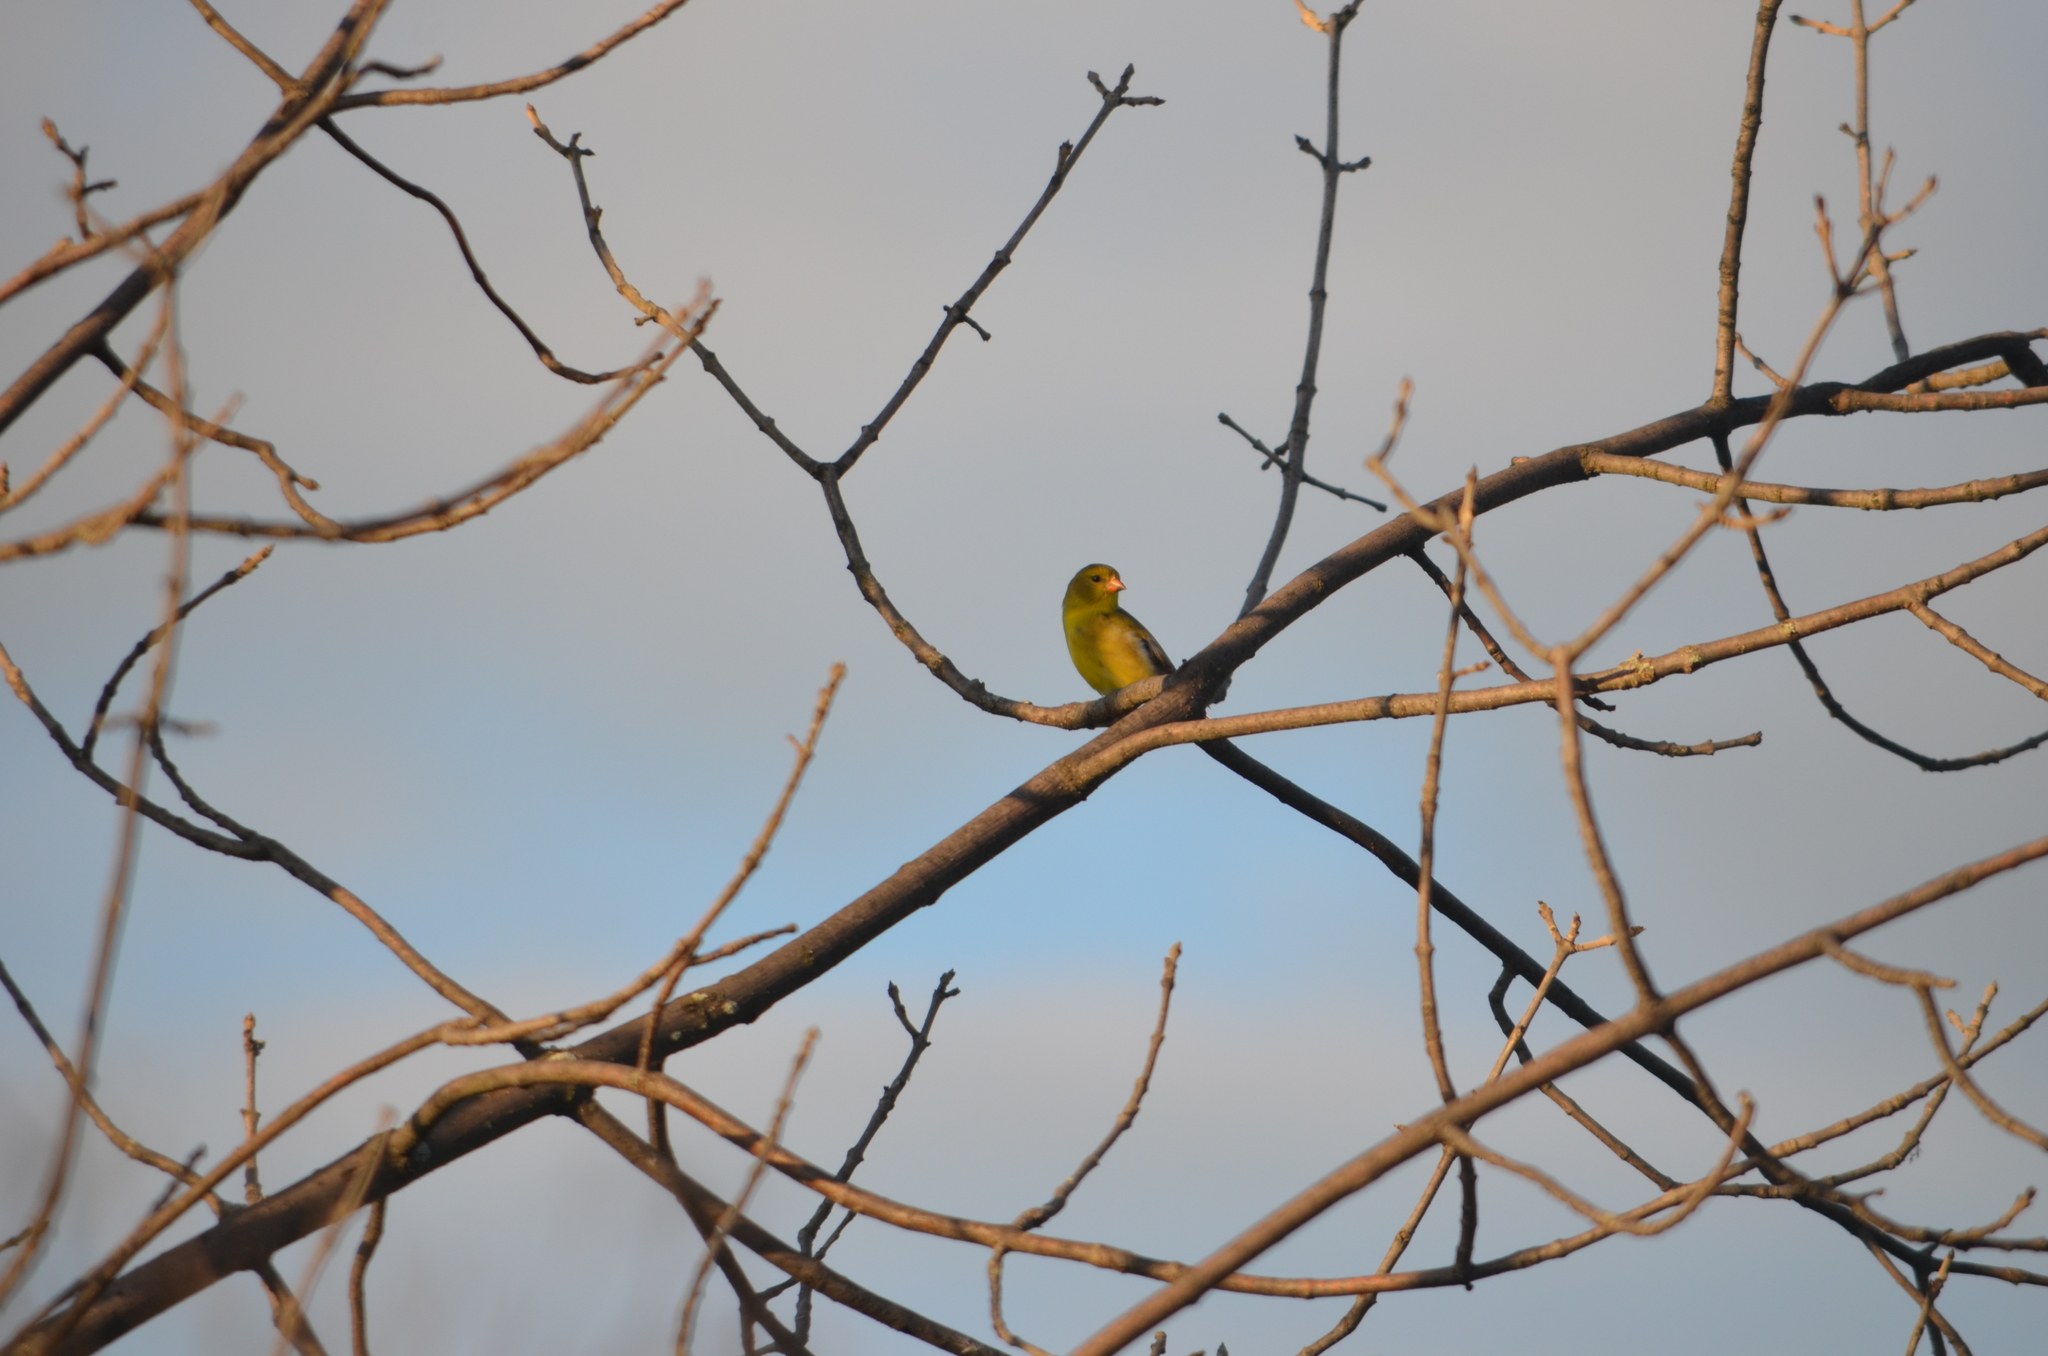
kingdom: Animalia
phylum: Chordata
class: Aves
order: Passeriformes
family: Fringillidae
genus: Spinus
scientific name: Spinus tristis
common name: American goldfinch
